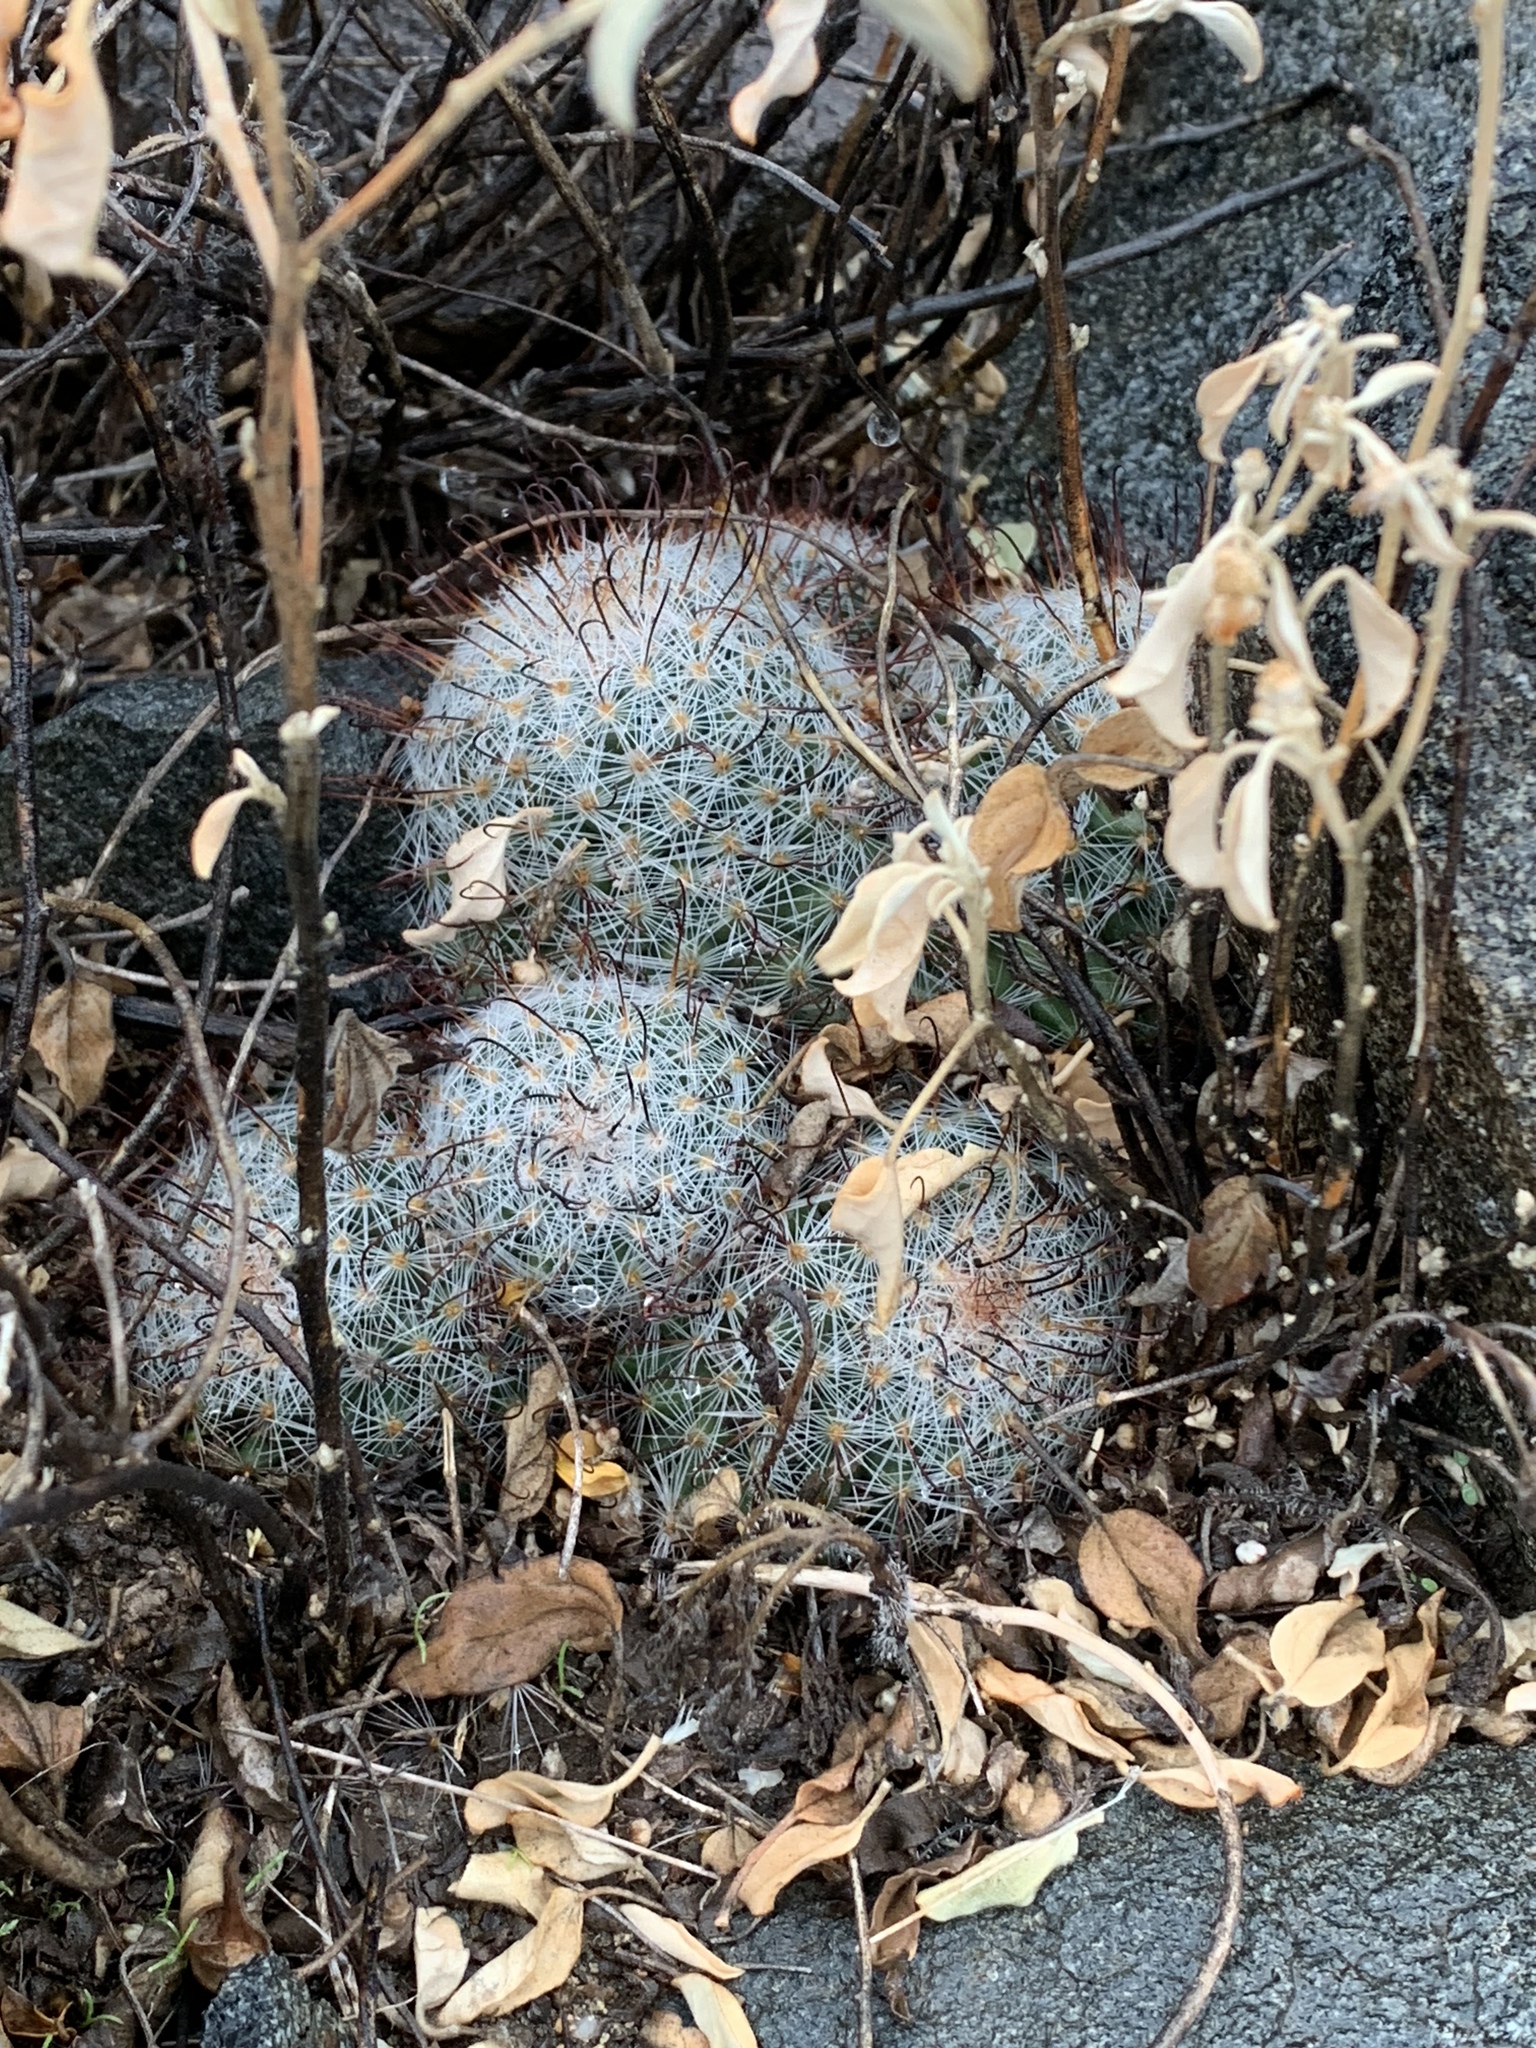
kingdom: Plantae
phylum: Tracheophyta
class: Magnoliopsida
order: Caryophyllales
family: Cactaceae
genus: Cochemiea
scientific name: Cochemiea grahamii
